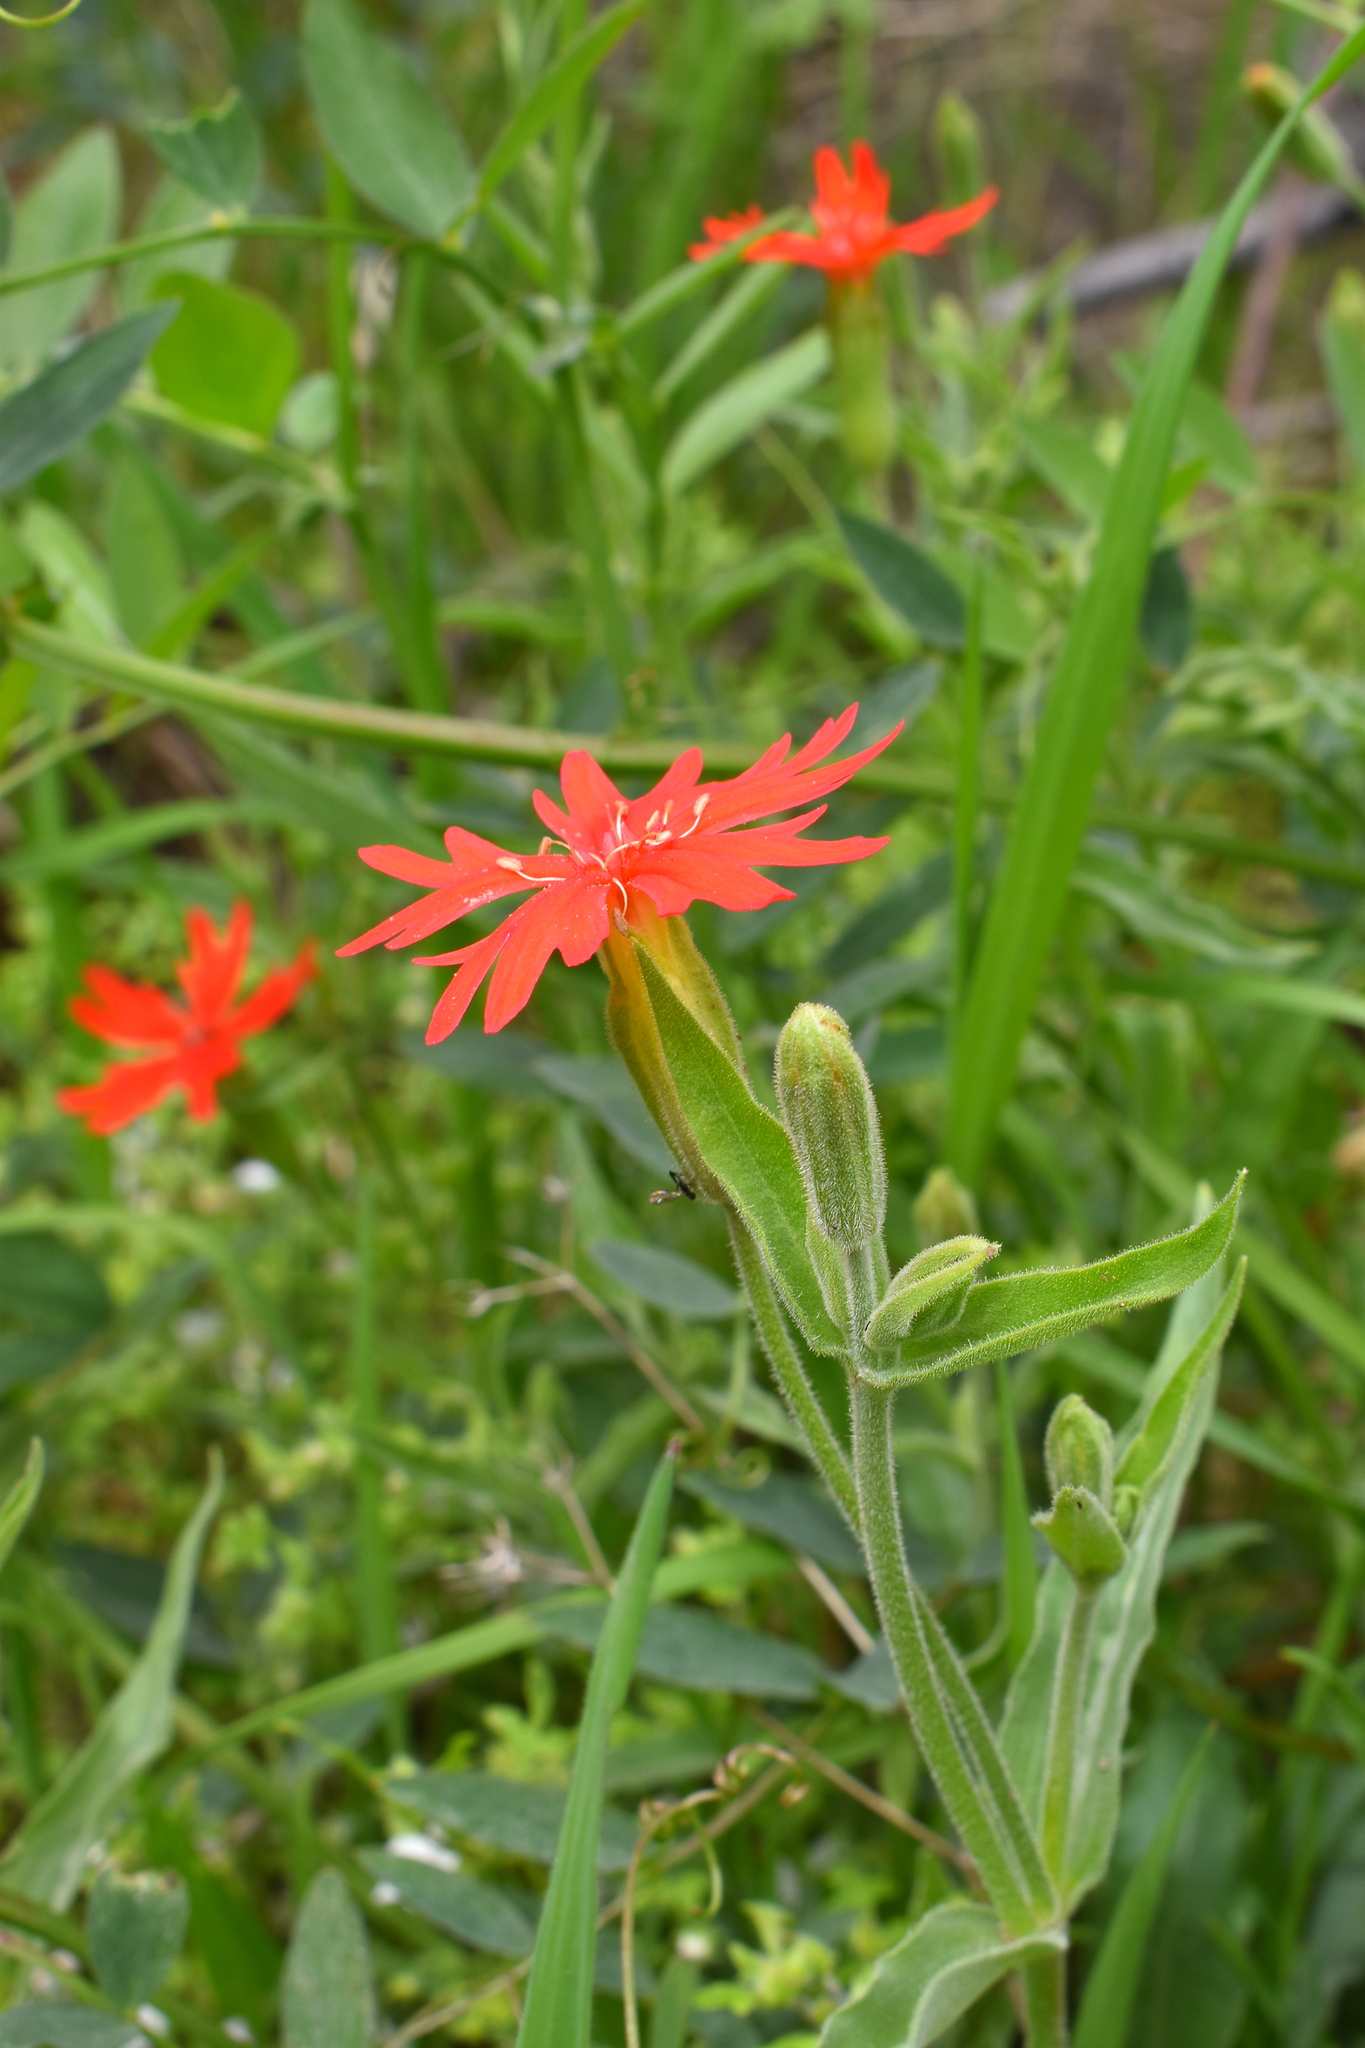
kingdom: Plantae
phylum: Tracheophyta
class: Magnoliopsida
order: Caryophyllales
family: Caryophyllaceae
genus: Silene
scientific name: Silene laciniata
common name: Indian-pink
